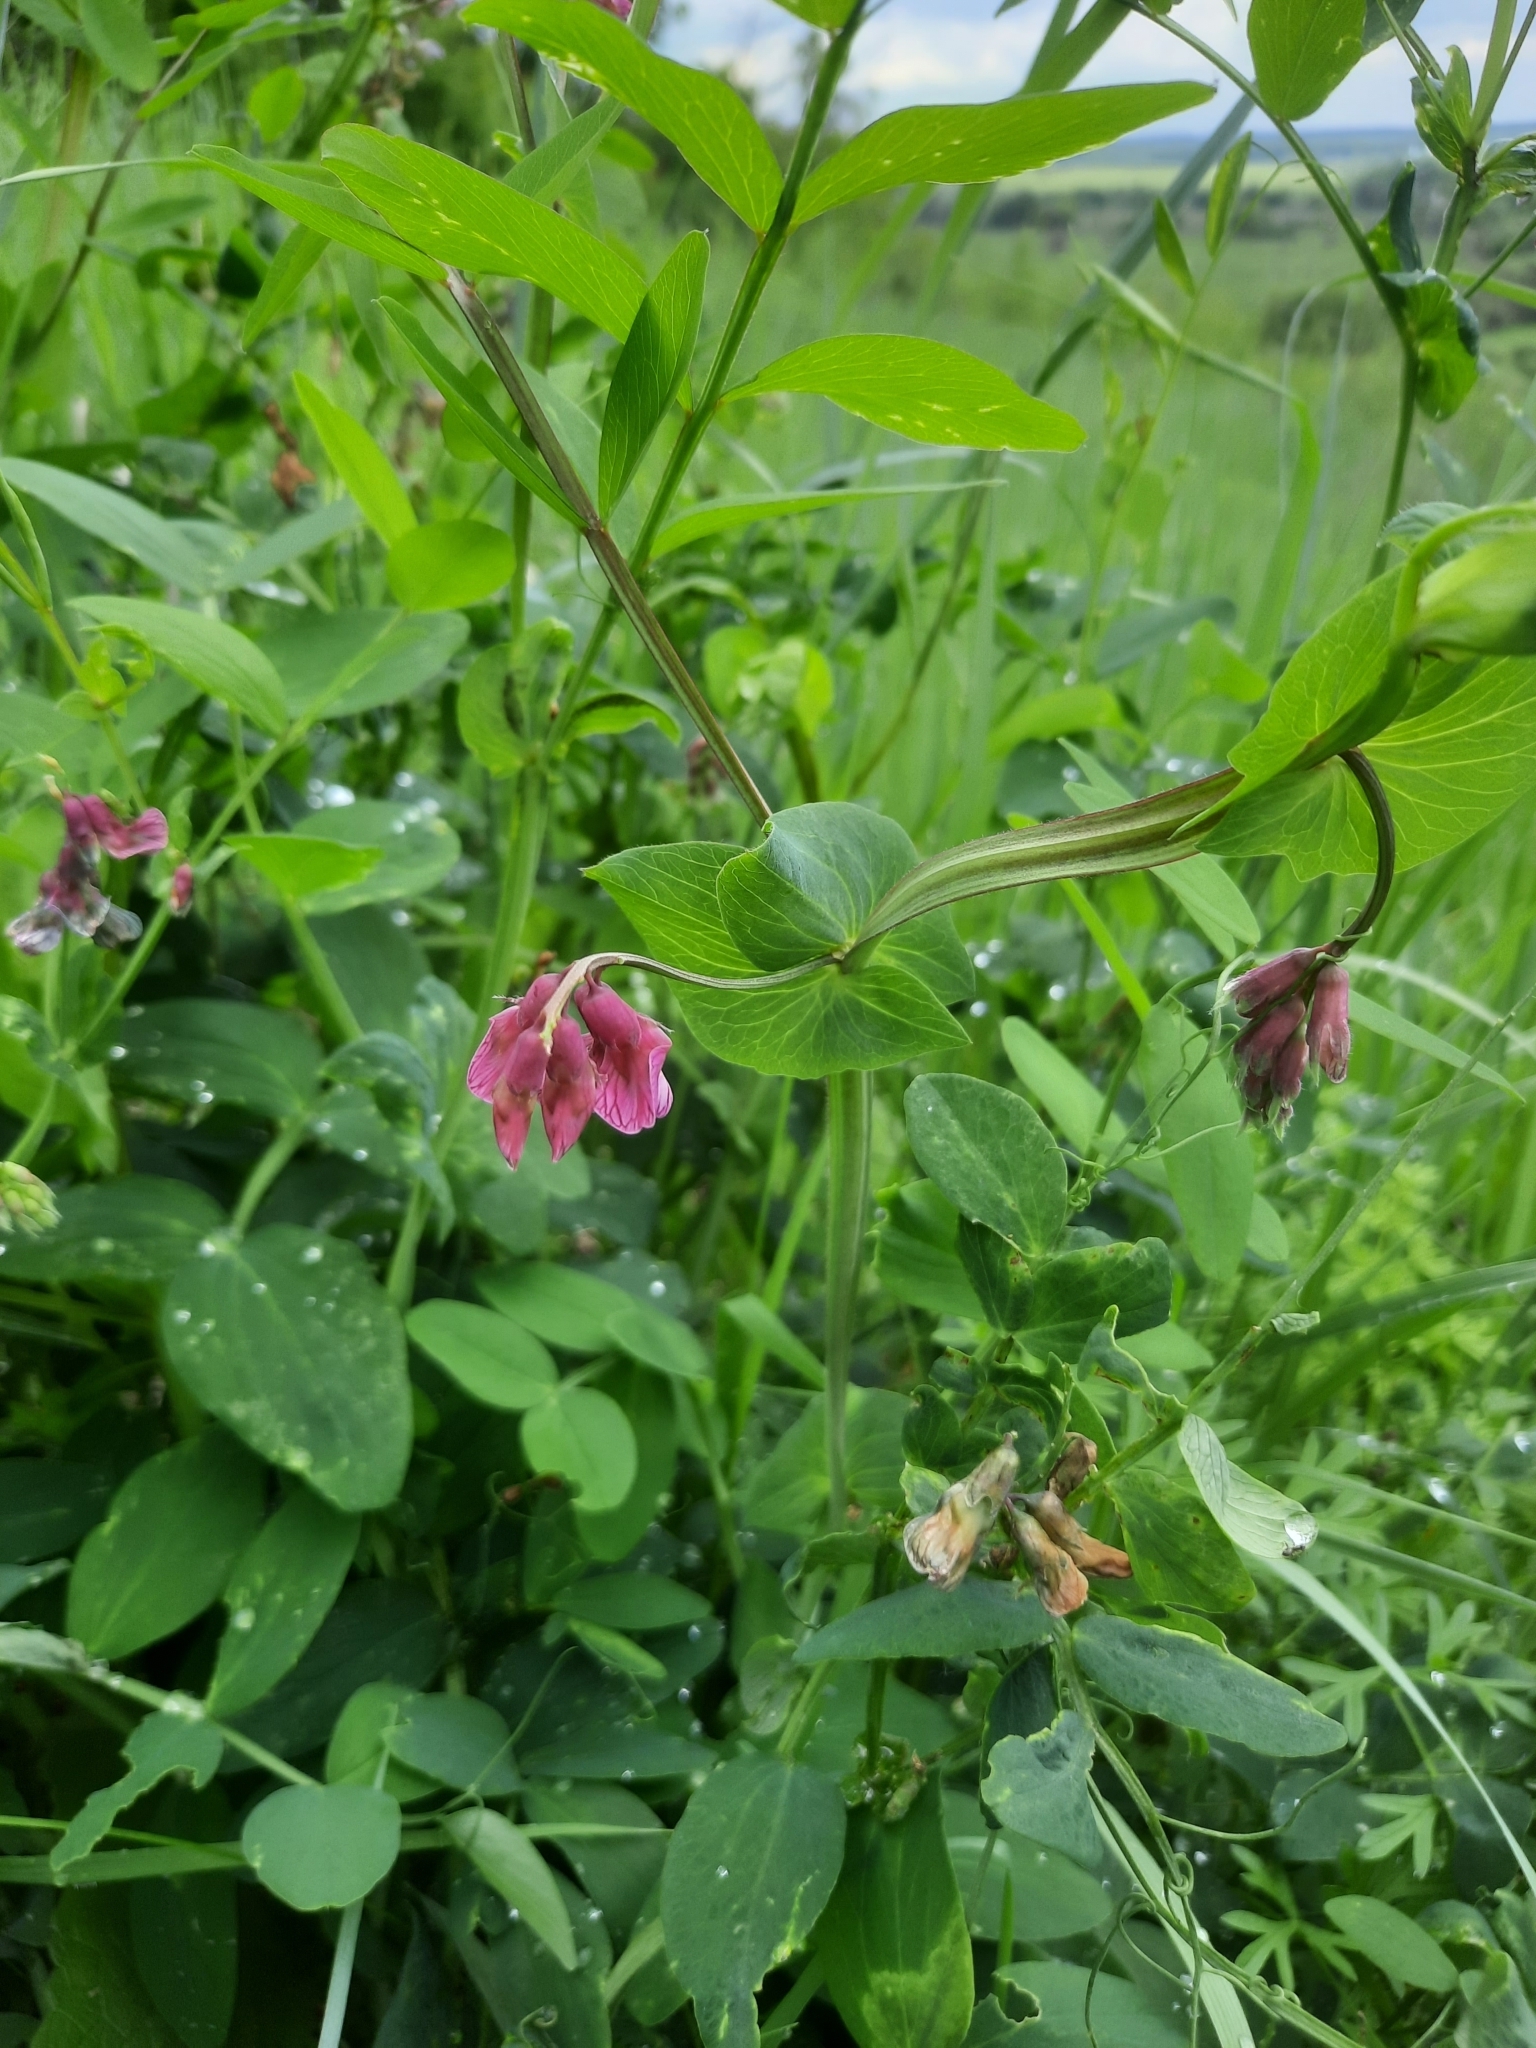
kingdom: Plantae
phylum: Tracheophyta
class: Magnoliopsida
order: Fabales
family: Fabaceae
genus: Lathyrus
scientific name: Lathyrus pisiformis
